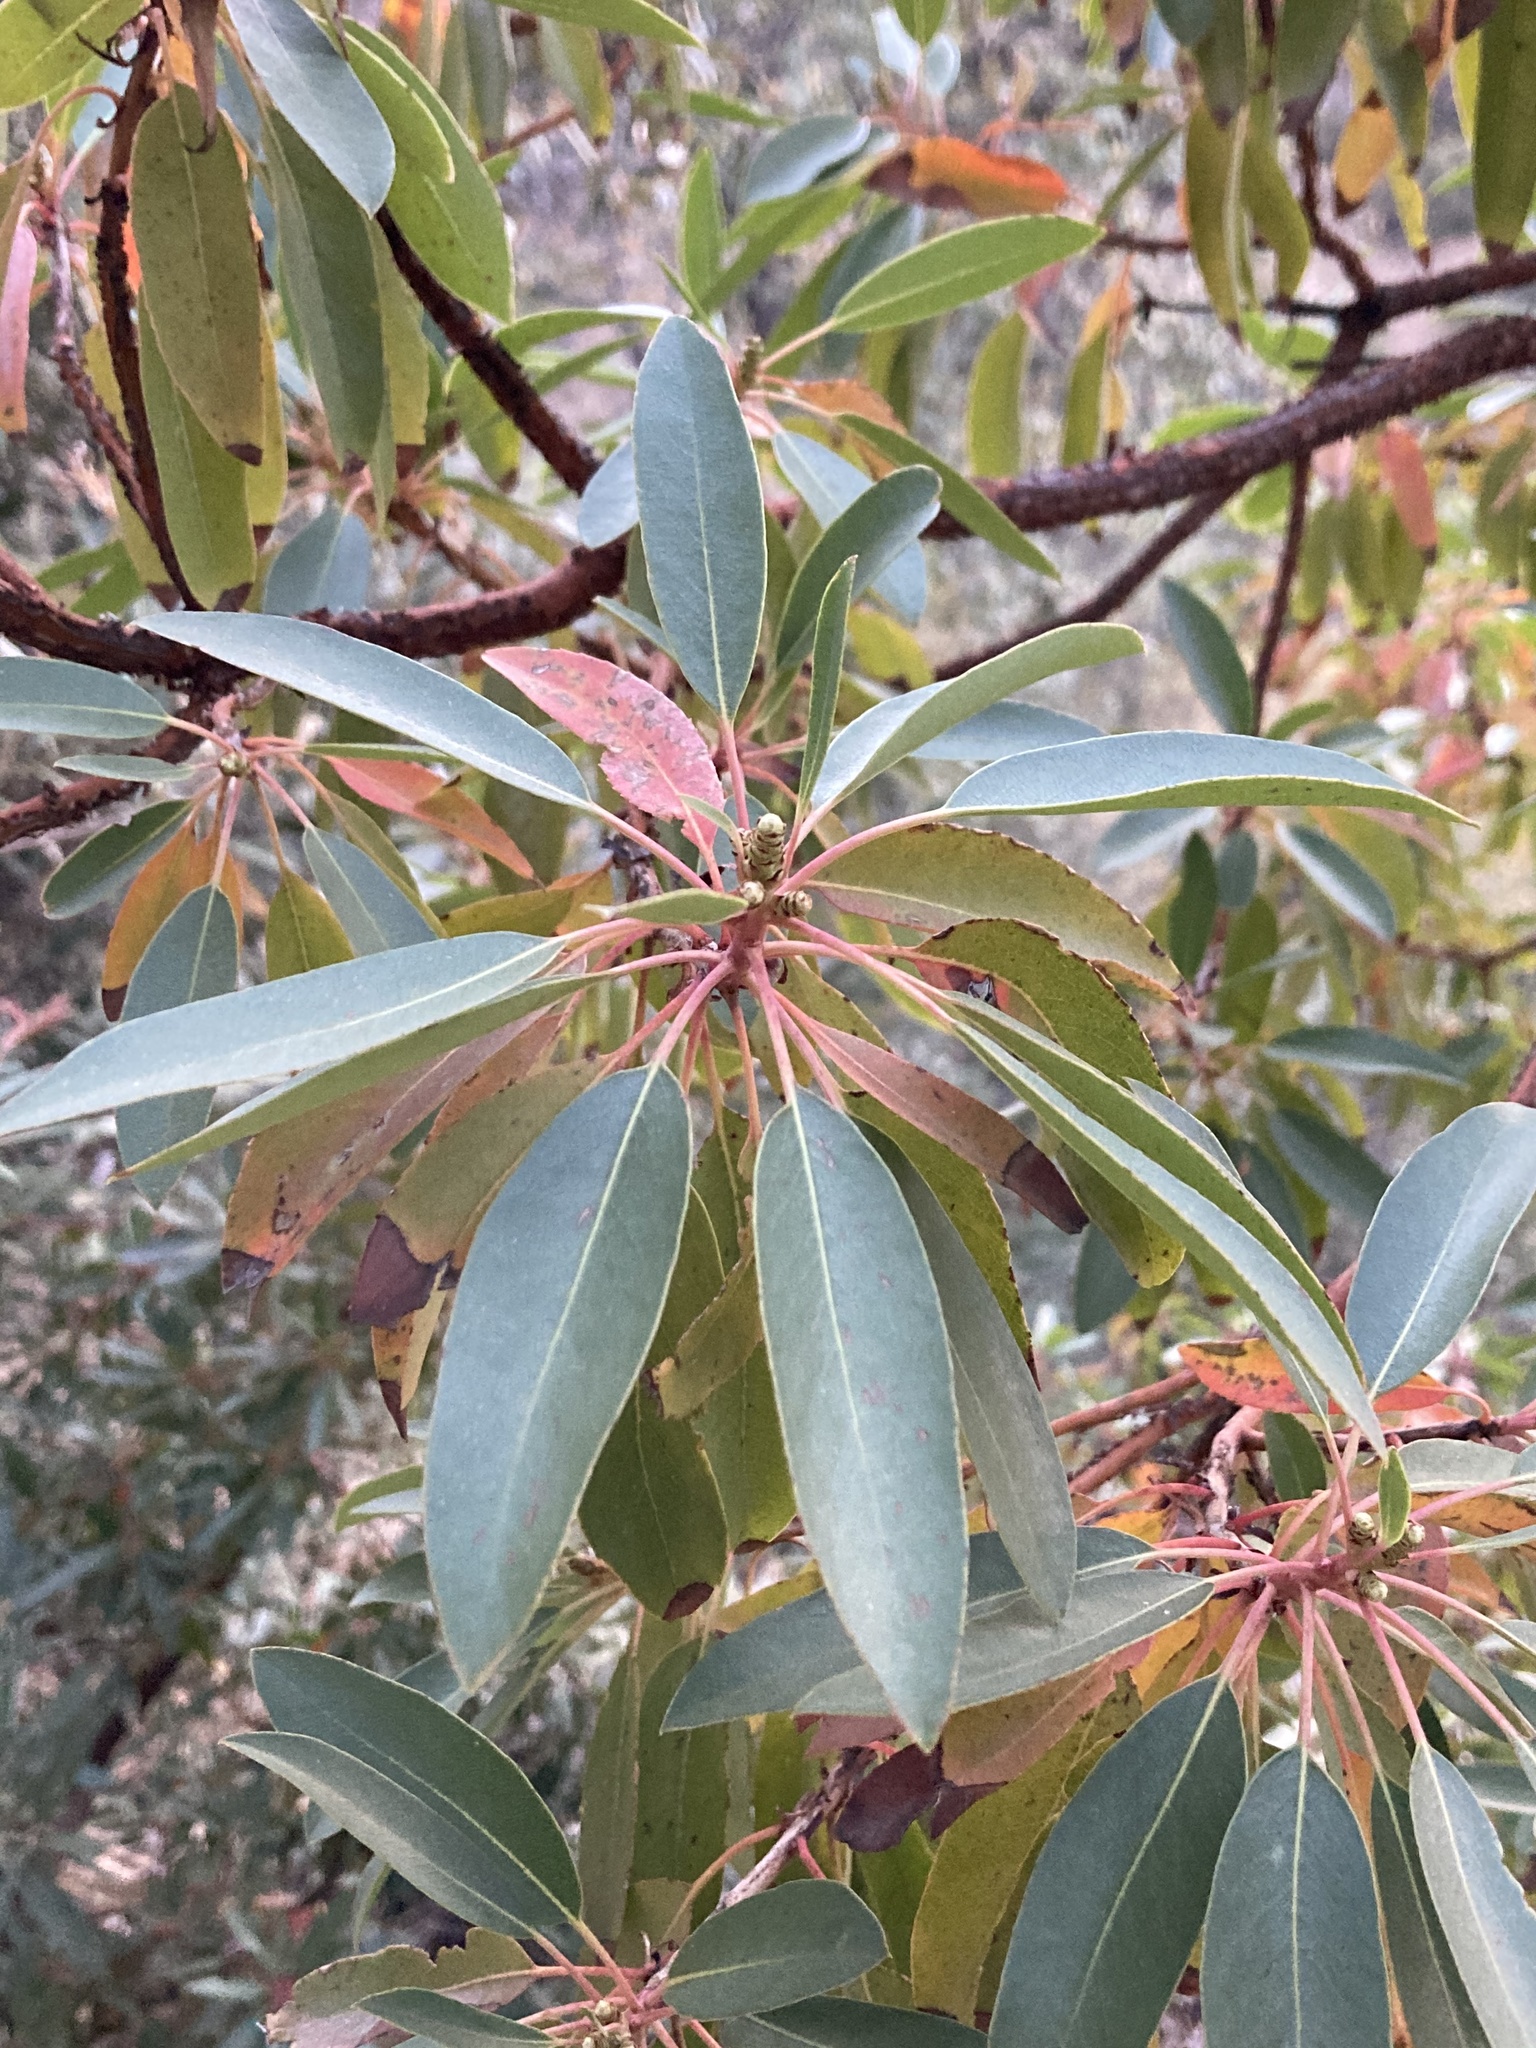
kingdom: Plantae
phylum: Tracheophyta
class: Magnoliopsida
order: Ericales
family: Ericaceae
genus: Arbutus
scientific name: Arbutus arizonica
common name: Arizona madrone
